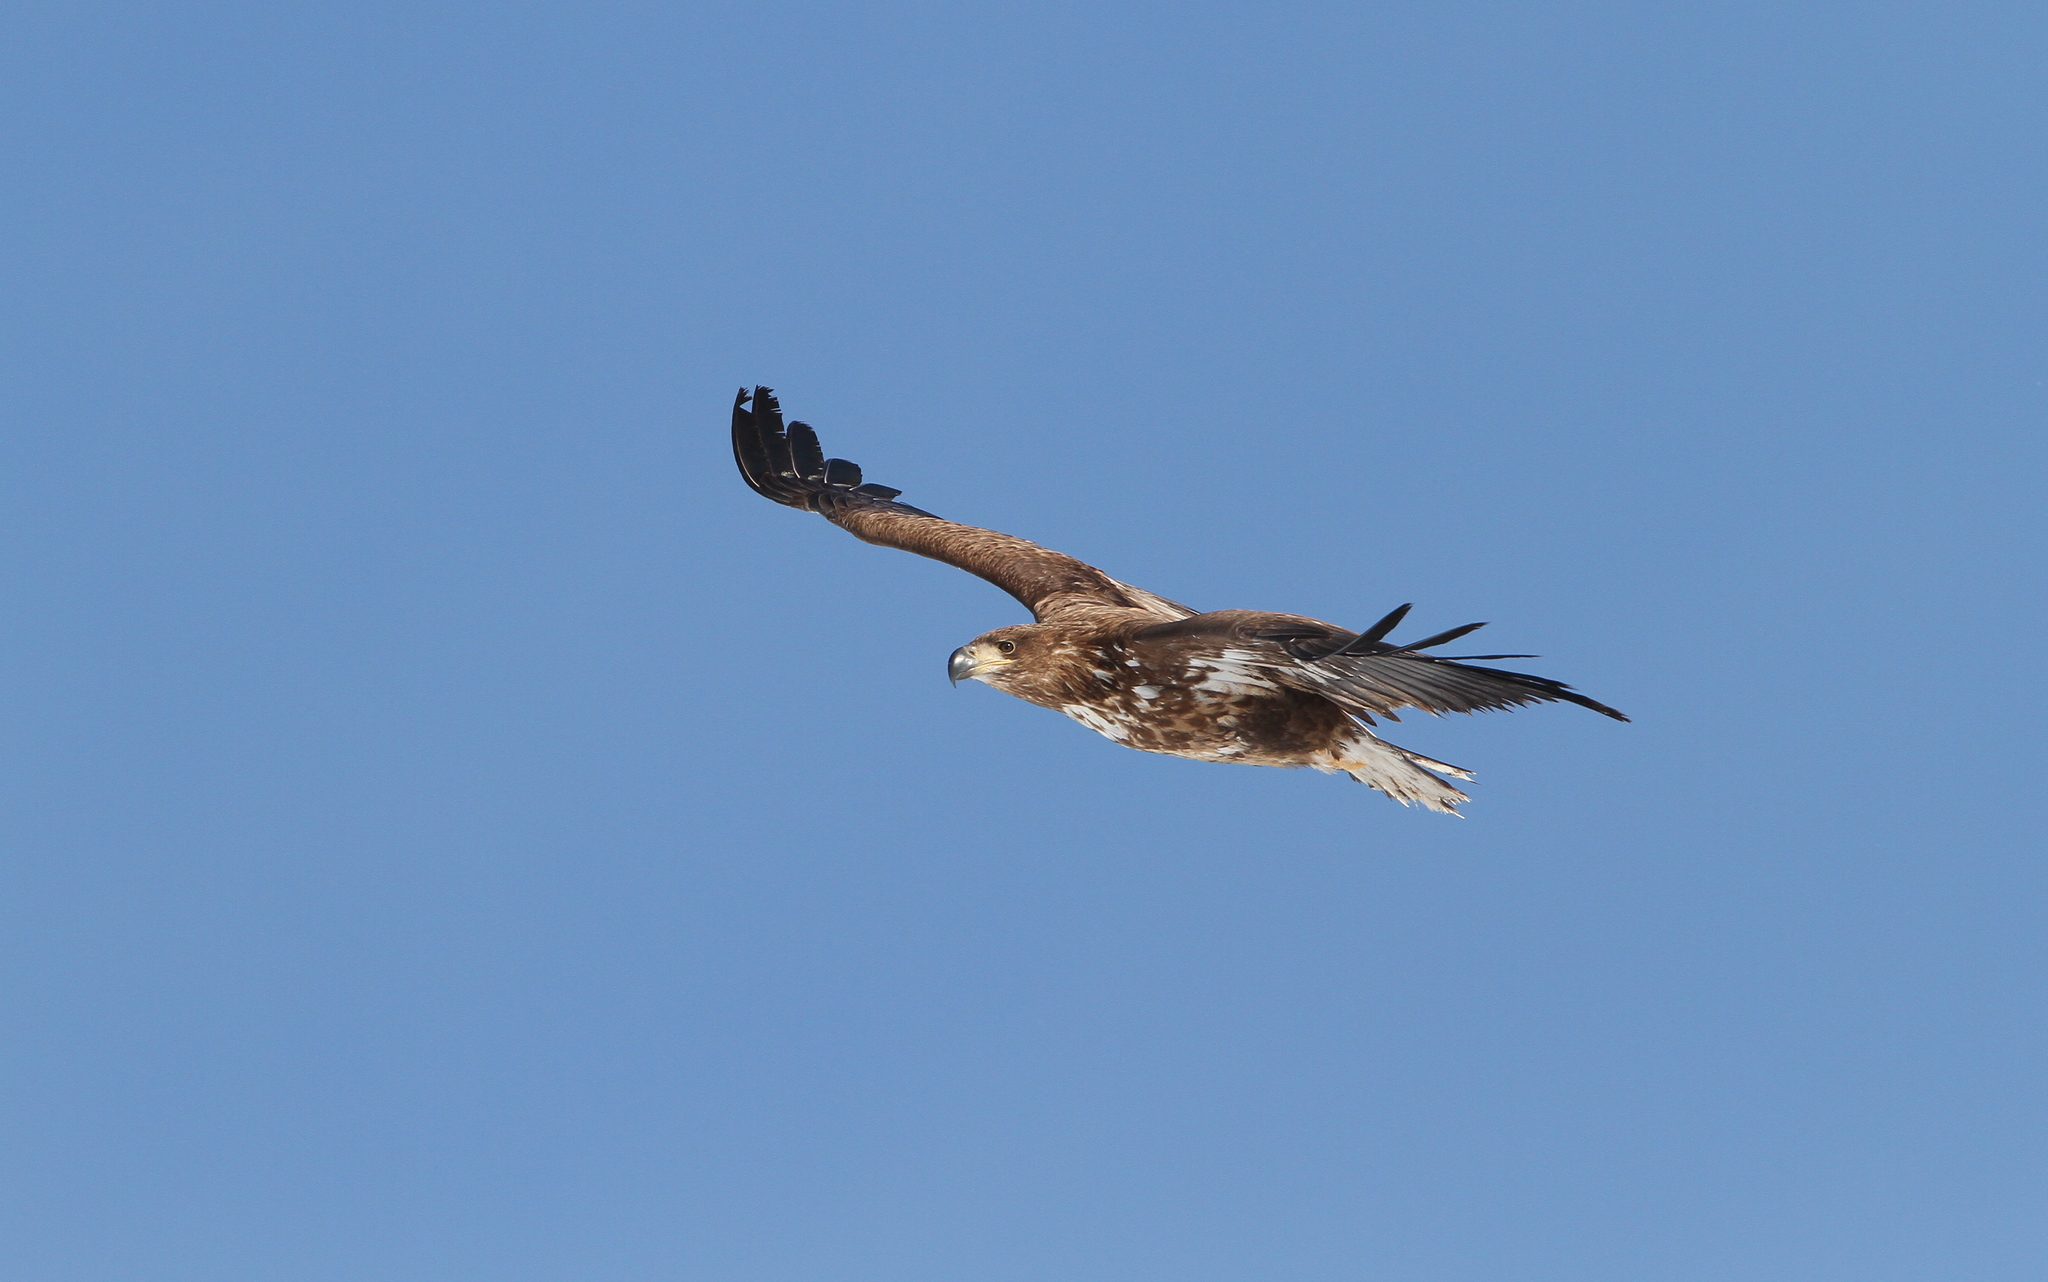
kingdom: Animalia
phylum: Chordata
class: Aves
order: Accipitriformes
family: Accipitridae
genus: Haliaeetus
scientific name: Haliaeetus albicilla
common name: White-tailed eagle
